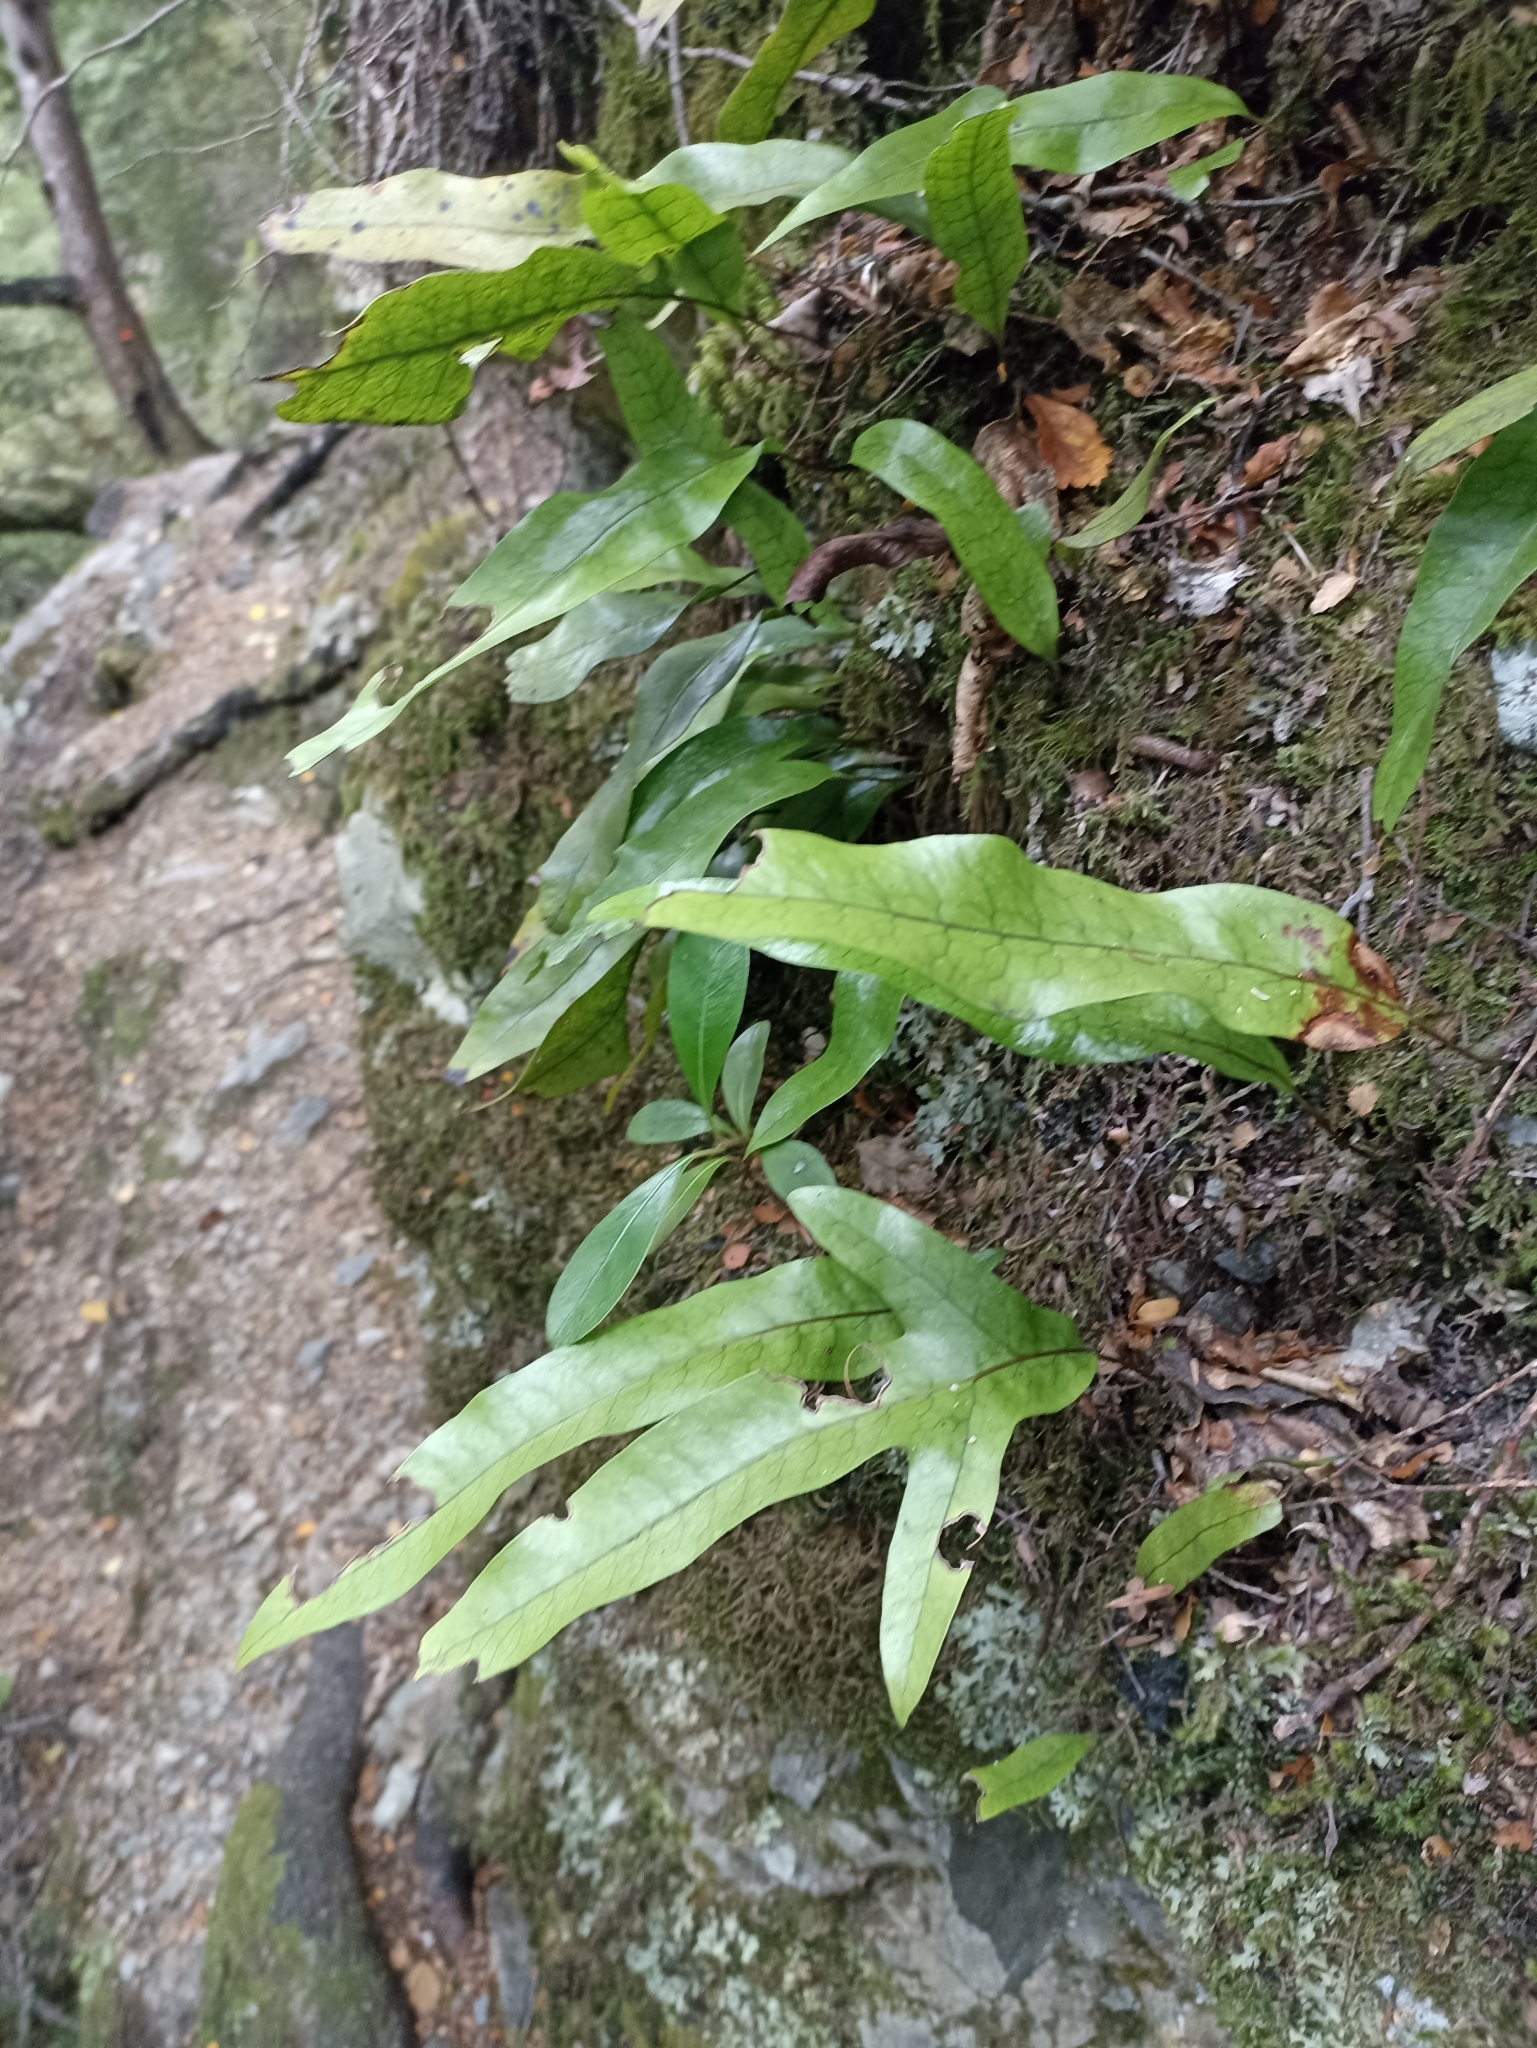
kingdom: Plantae
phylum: Tracheophyta
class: Polypodiopsida
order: Polypodiales
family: Polypodiaceae
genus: Lecanopteris
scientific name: Lecanopteris pustulata
